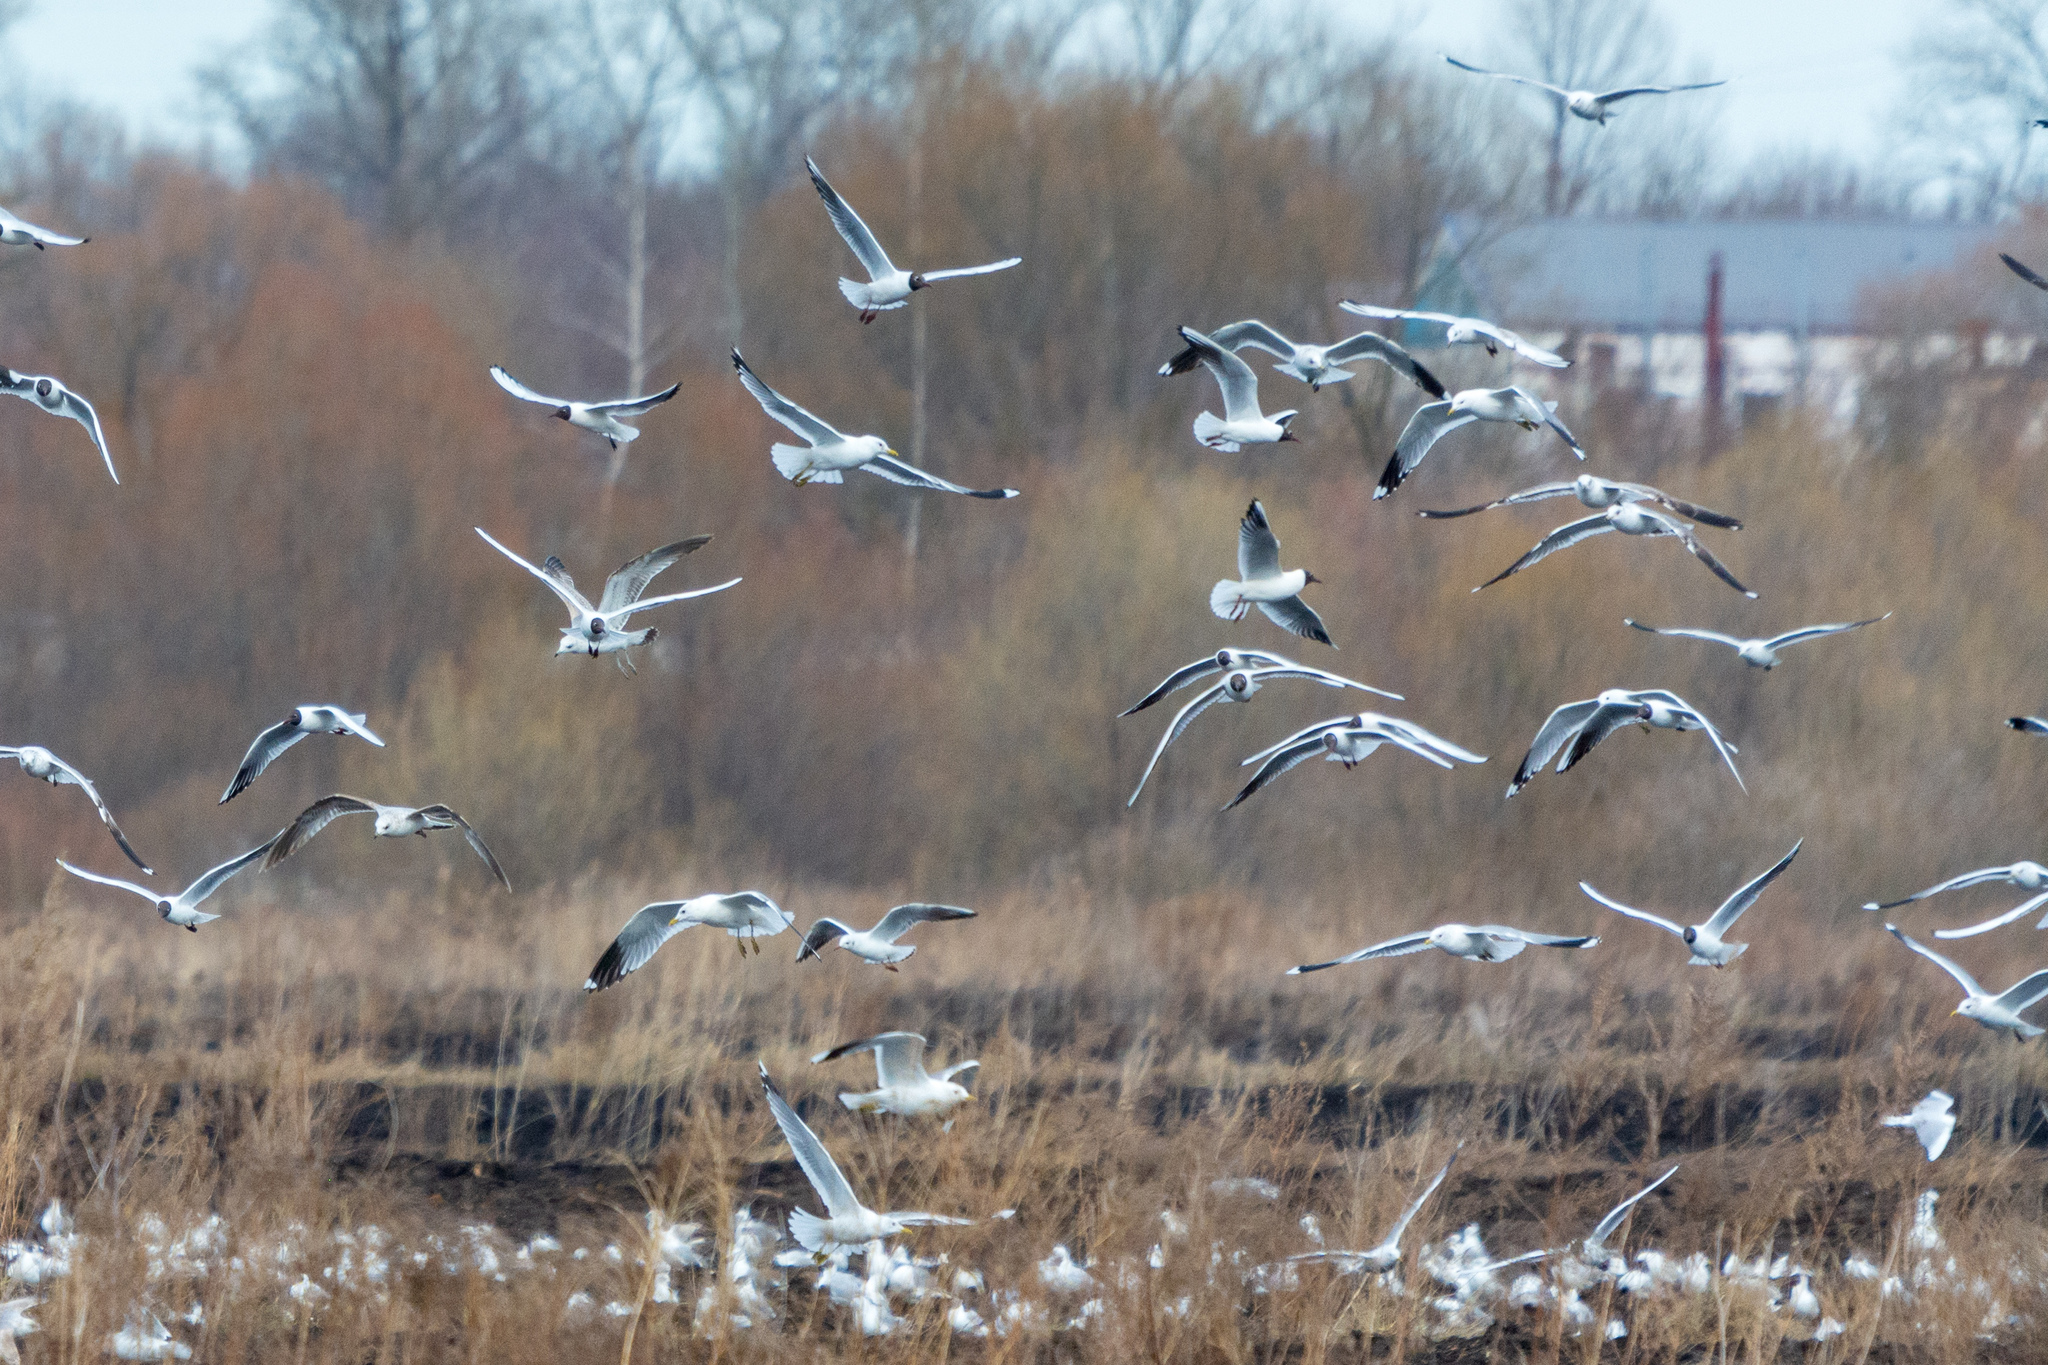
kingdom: Animalia
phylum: Chordata
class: Aves
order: Charadriiformes
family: Laridae
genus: Larus
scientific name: Larus canus
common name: Mew gull
